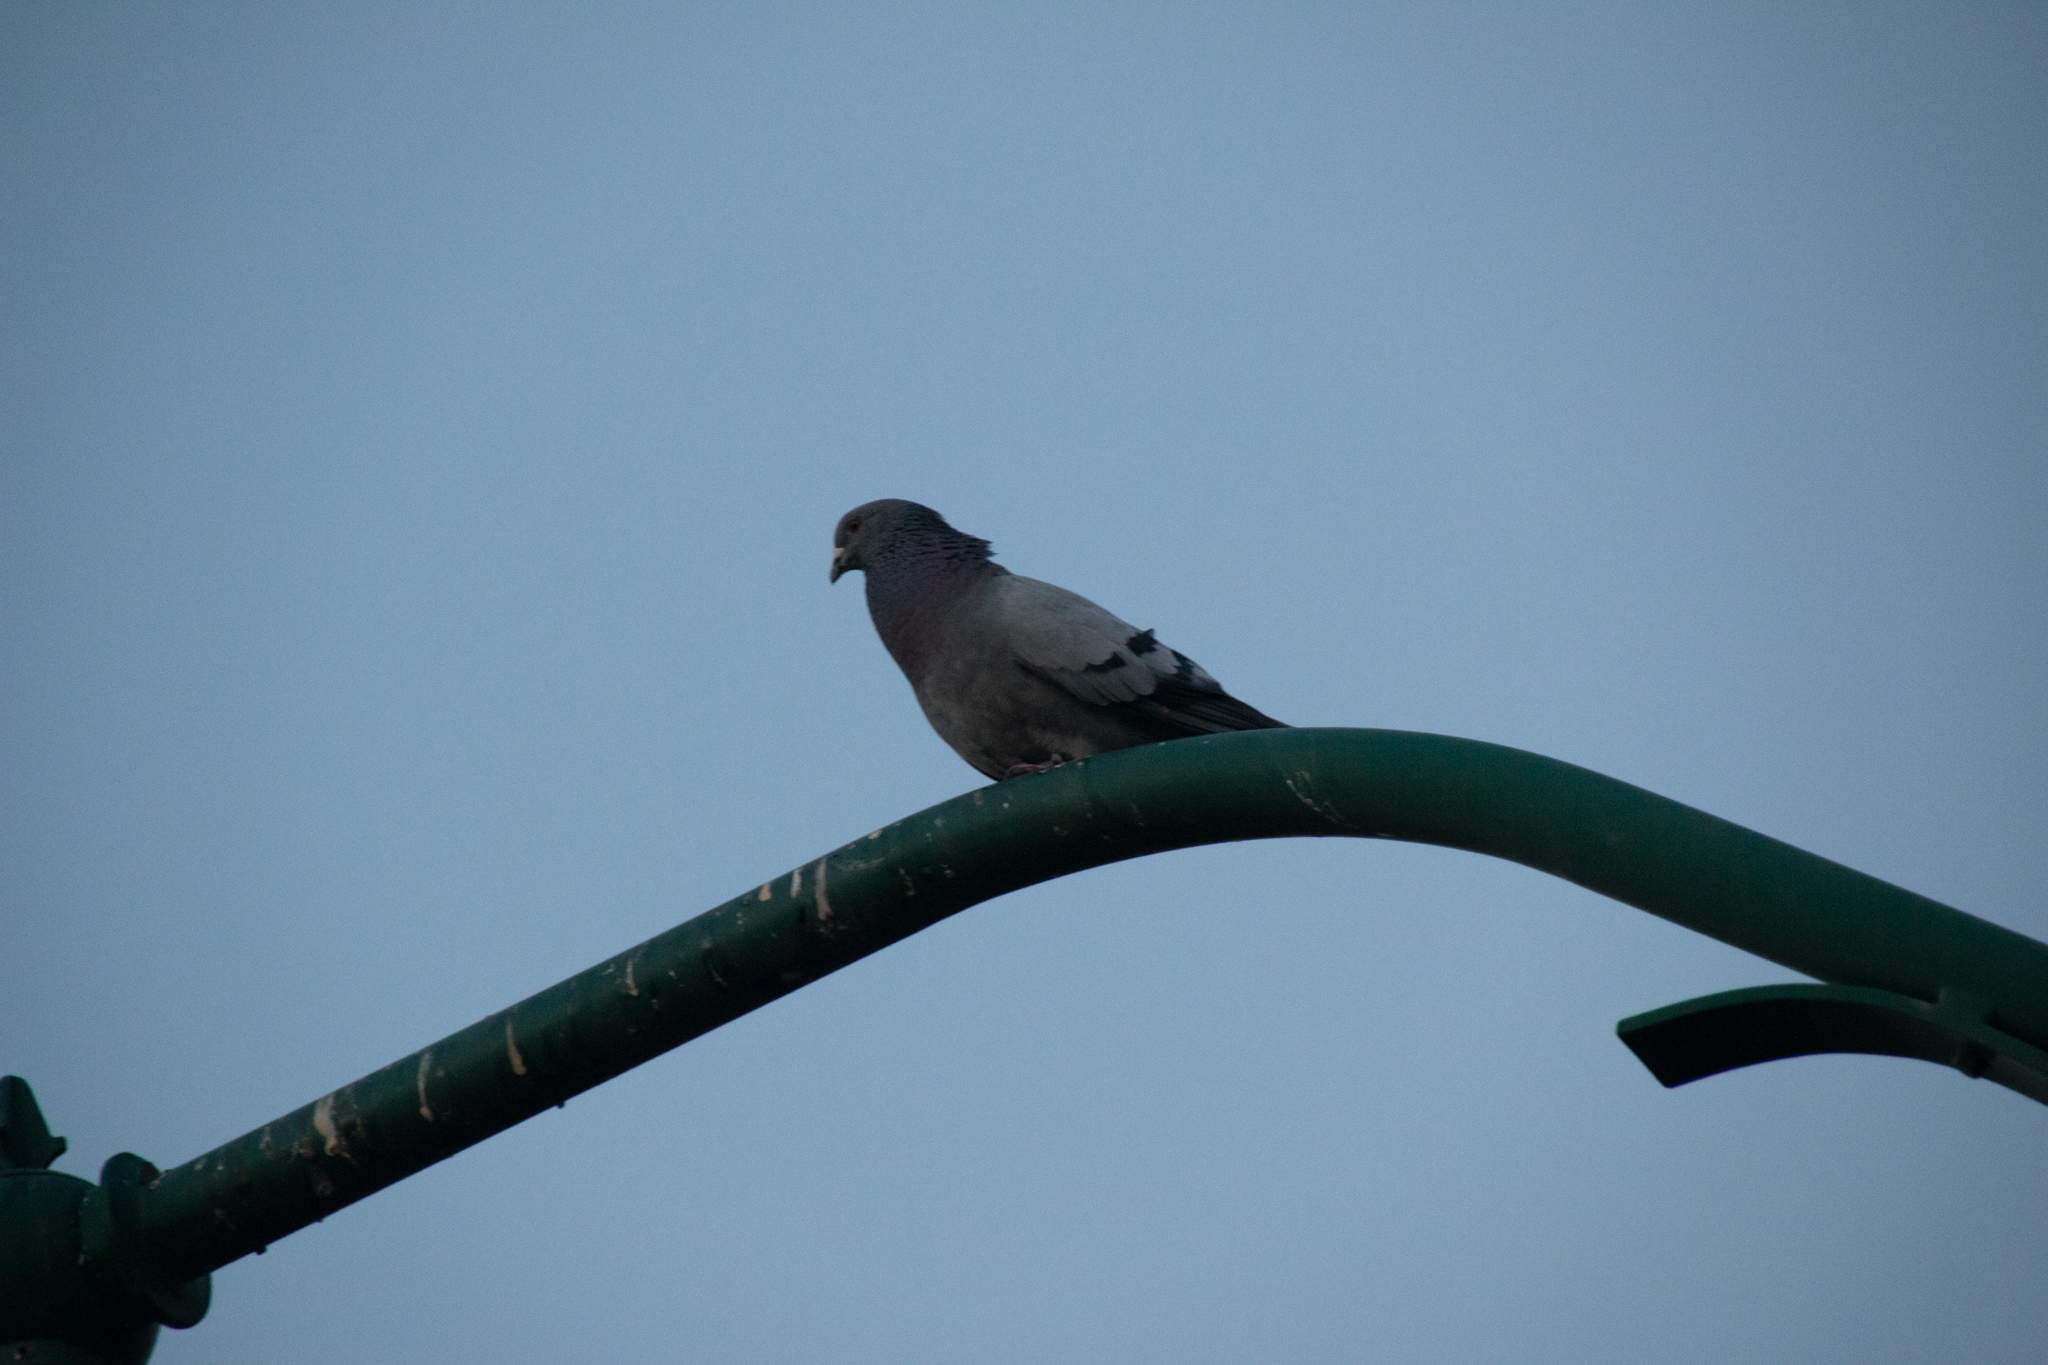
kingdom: Animalia
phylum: Chordata
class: Aves
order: Columbiformes
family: Columbidae
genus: Columba
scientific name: Columba livia
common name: Rock pigeon
